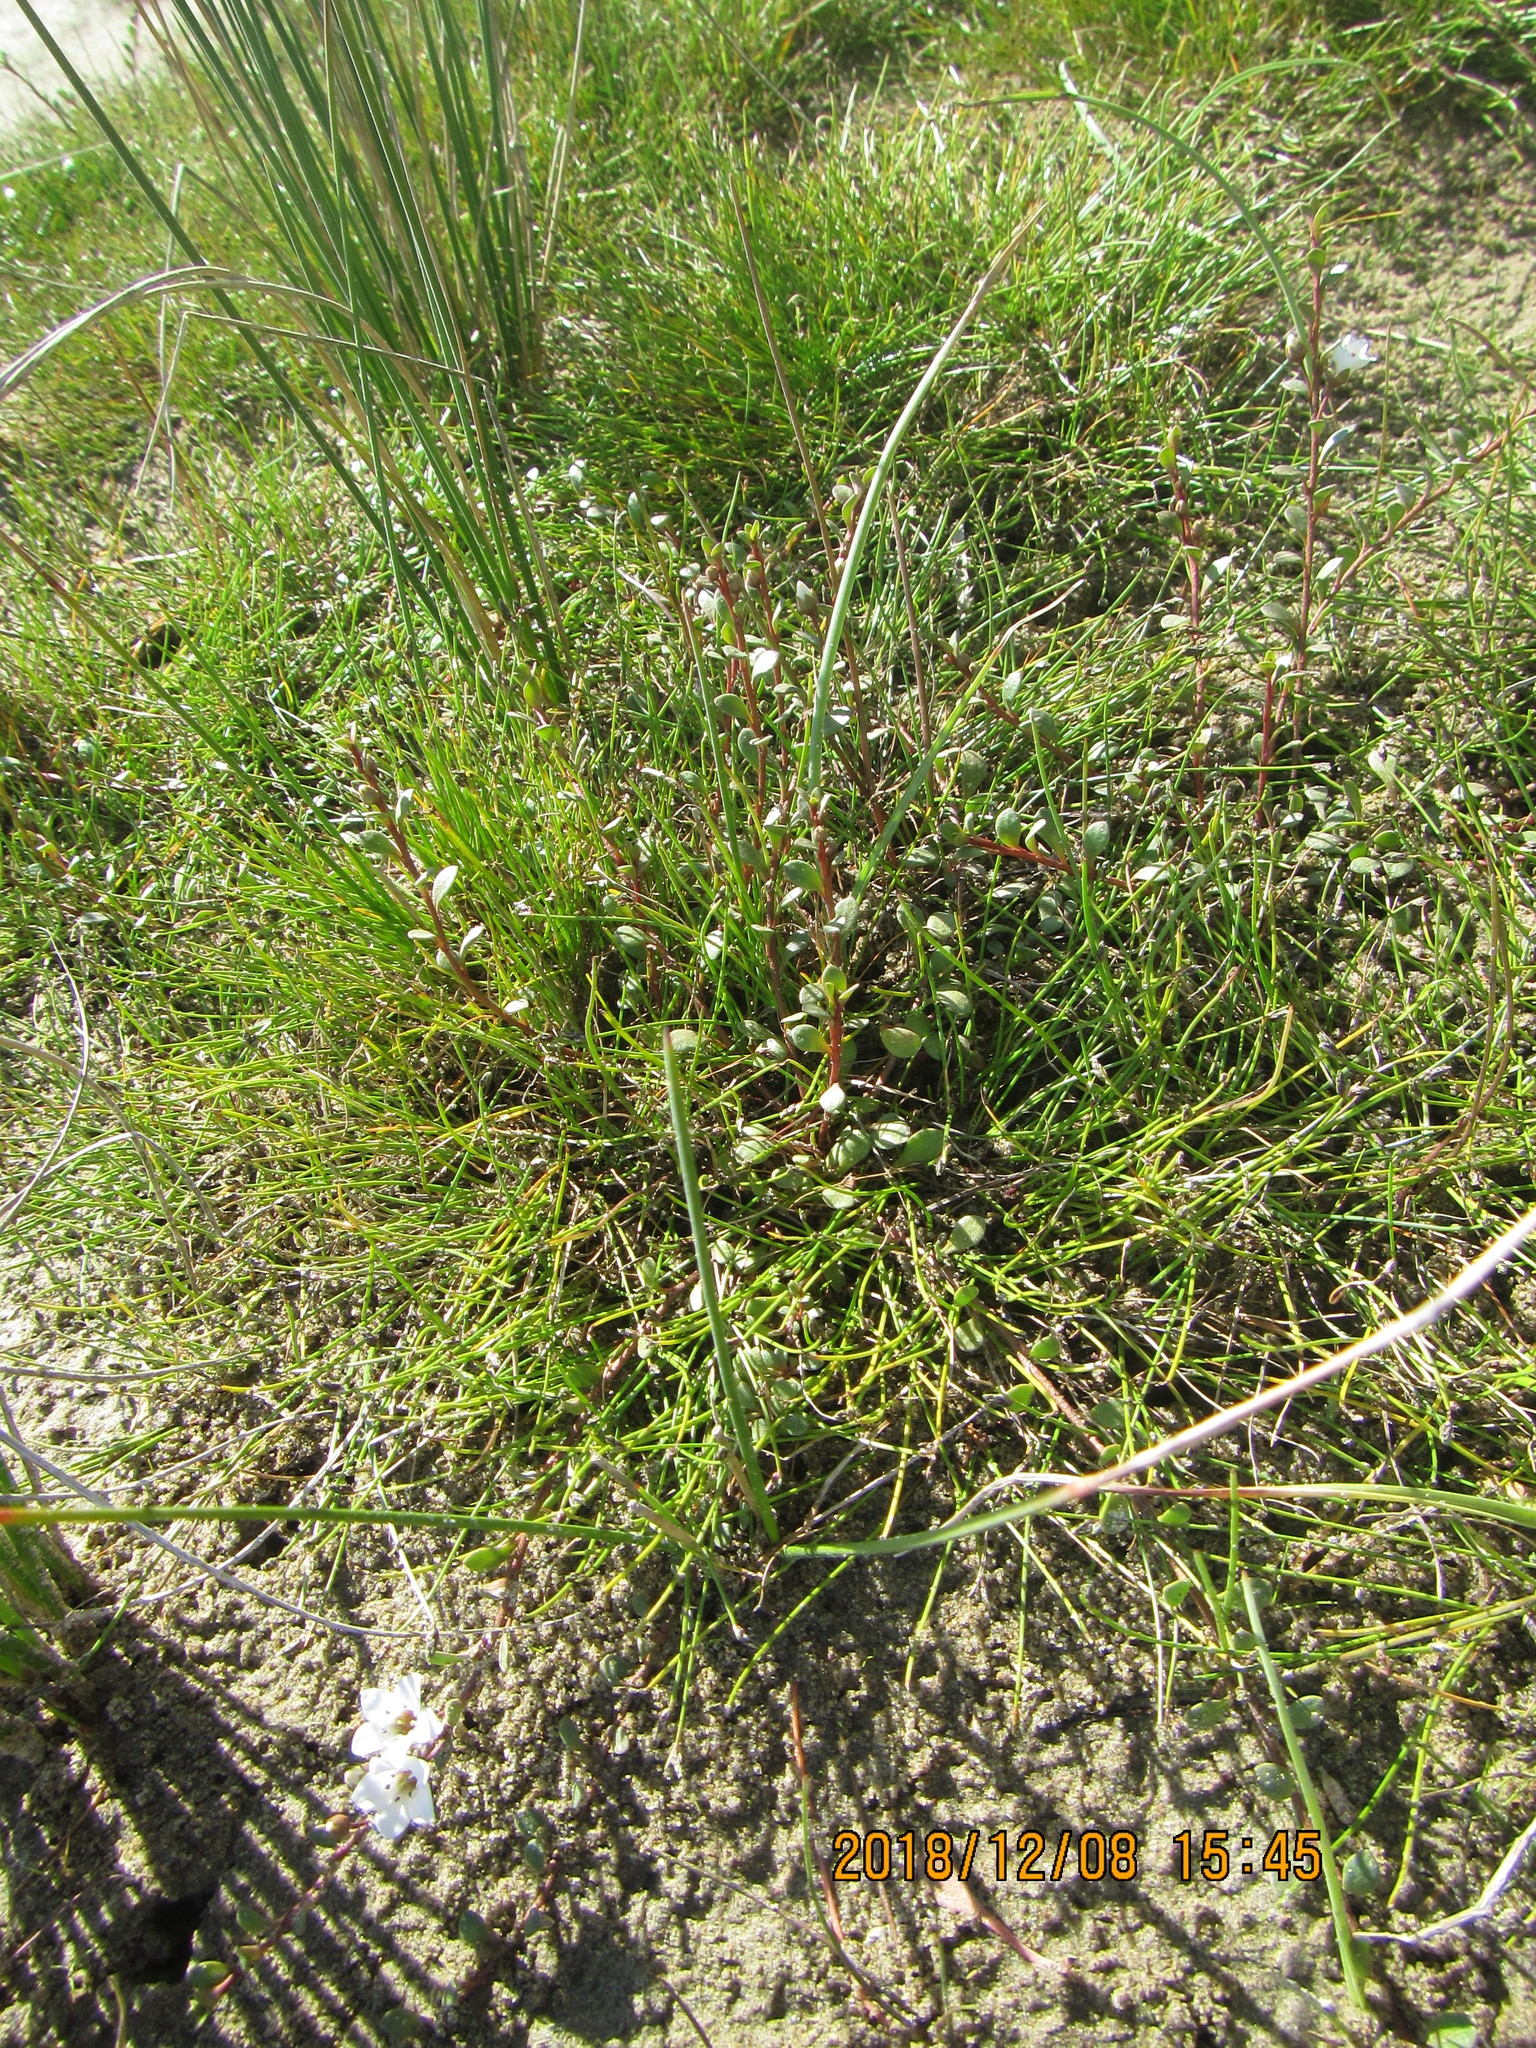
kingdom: Plantae
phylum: Tracheophyta
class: Magnoliopsida
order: Ericales
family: Primulaceae
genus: Samolus
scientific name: Samolus repens
